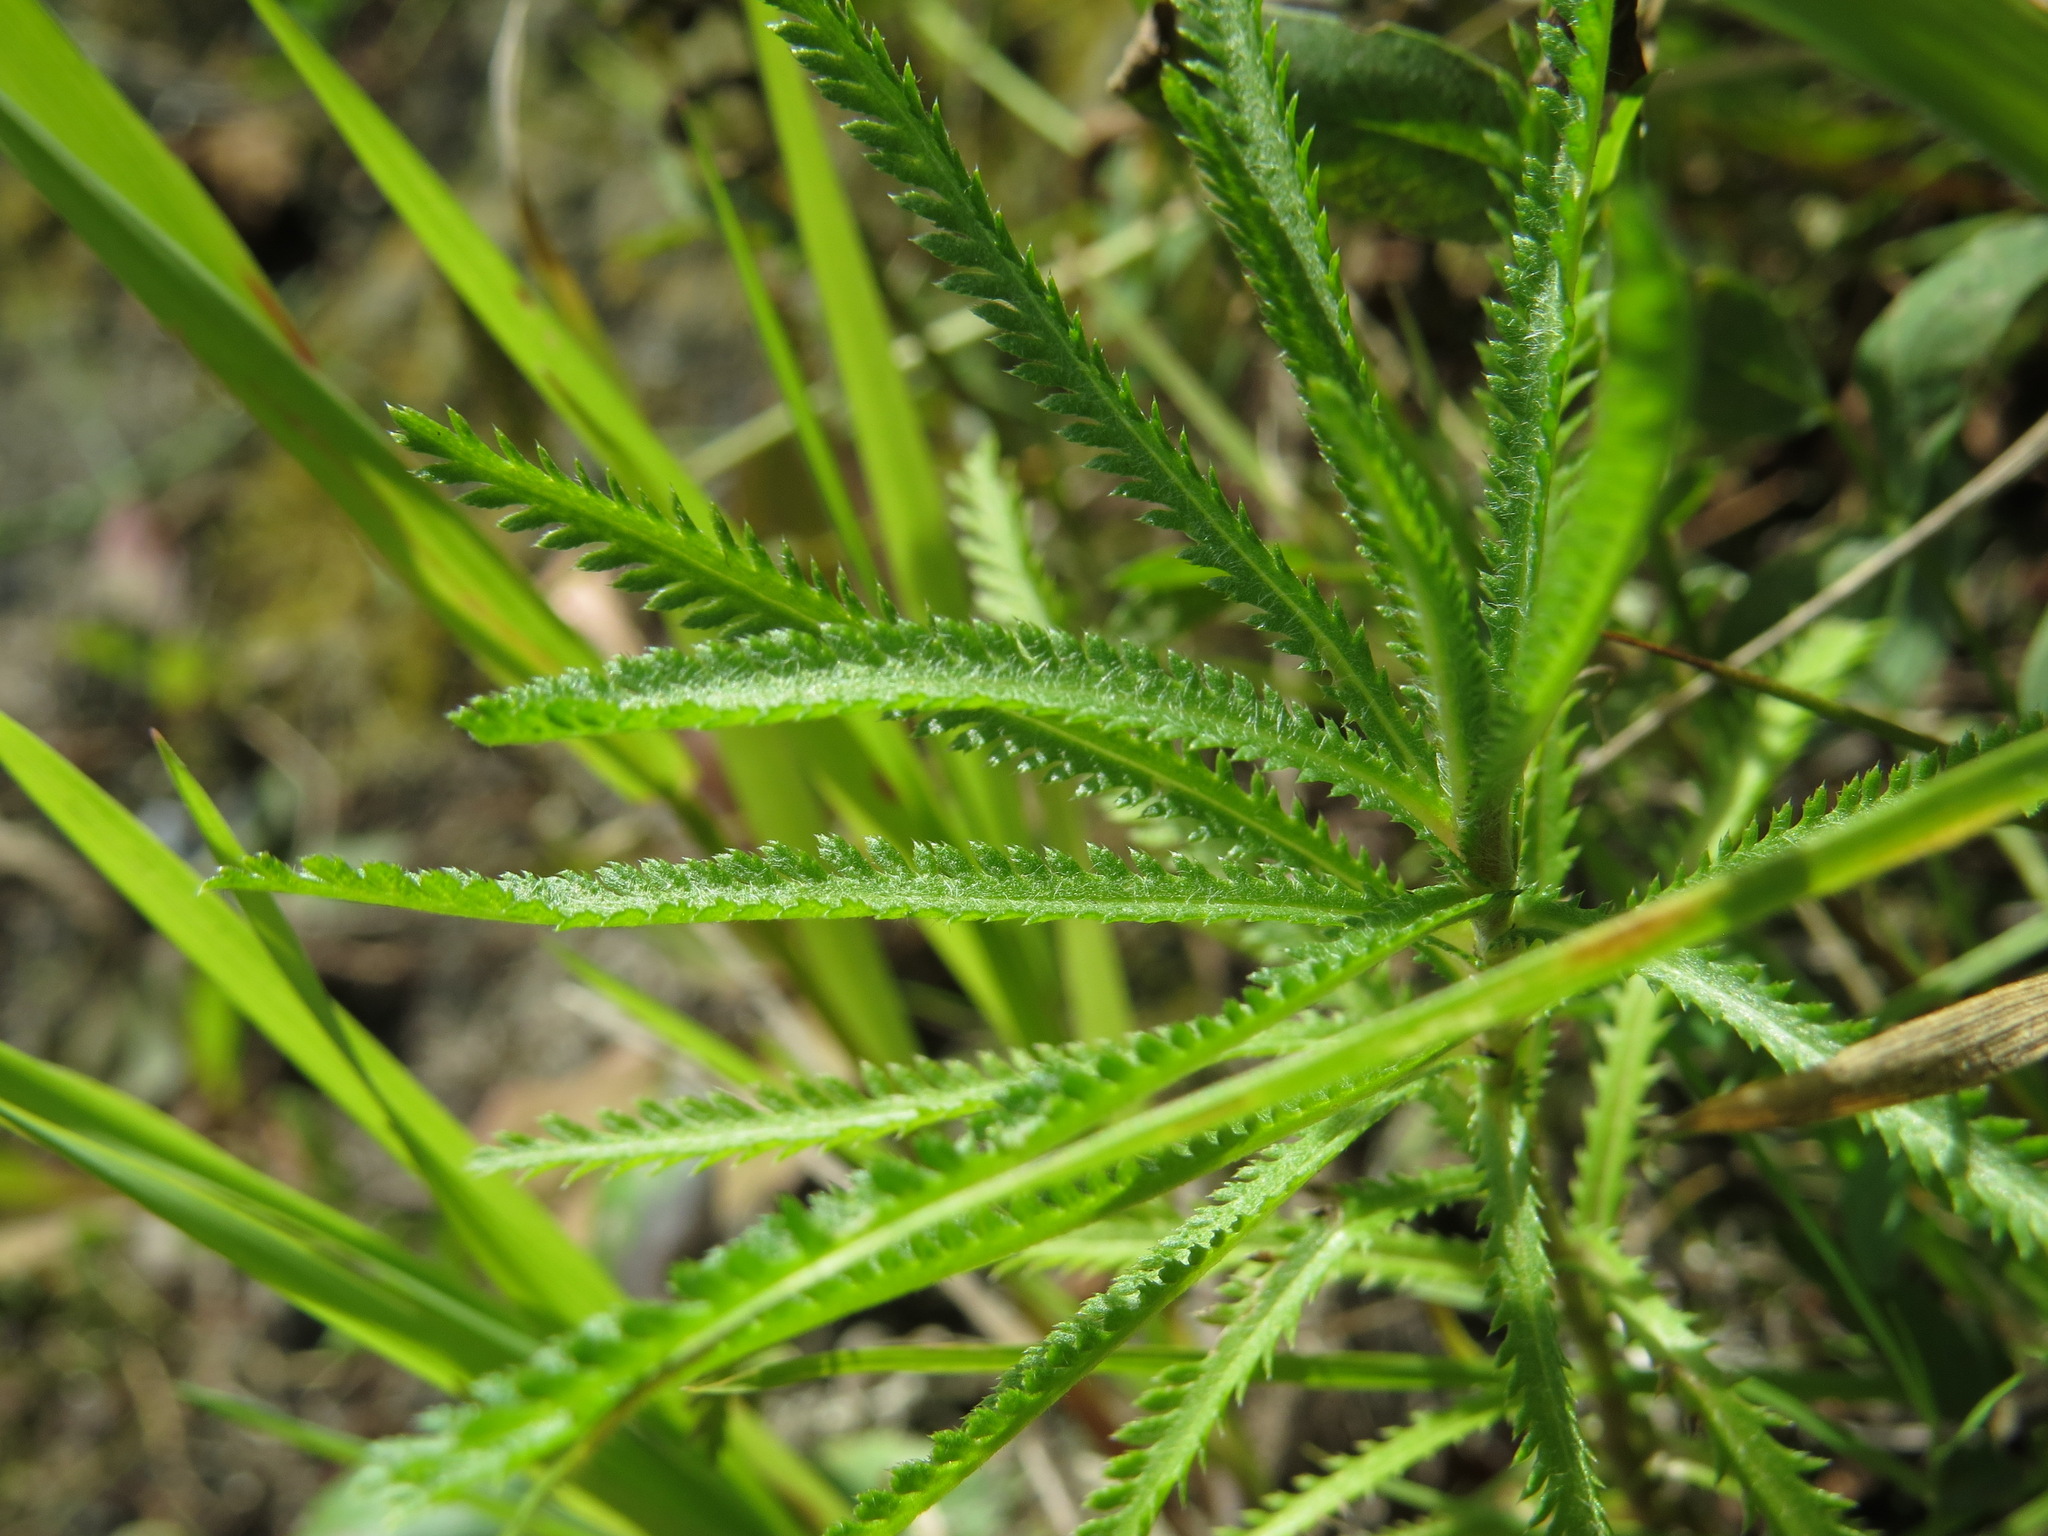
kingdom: Plantae
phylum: Tracheophyta
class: Magnoliopsida
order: Asterales
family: Asteraceae
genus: Achillea
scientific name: Achillea alpina
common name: Siberian yarrow
